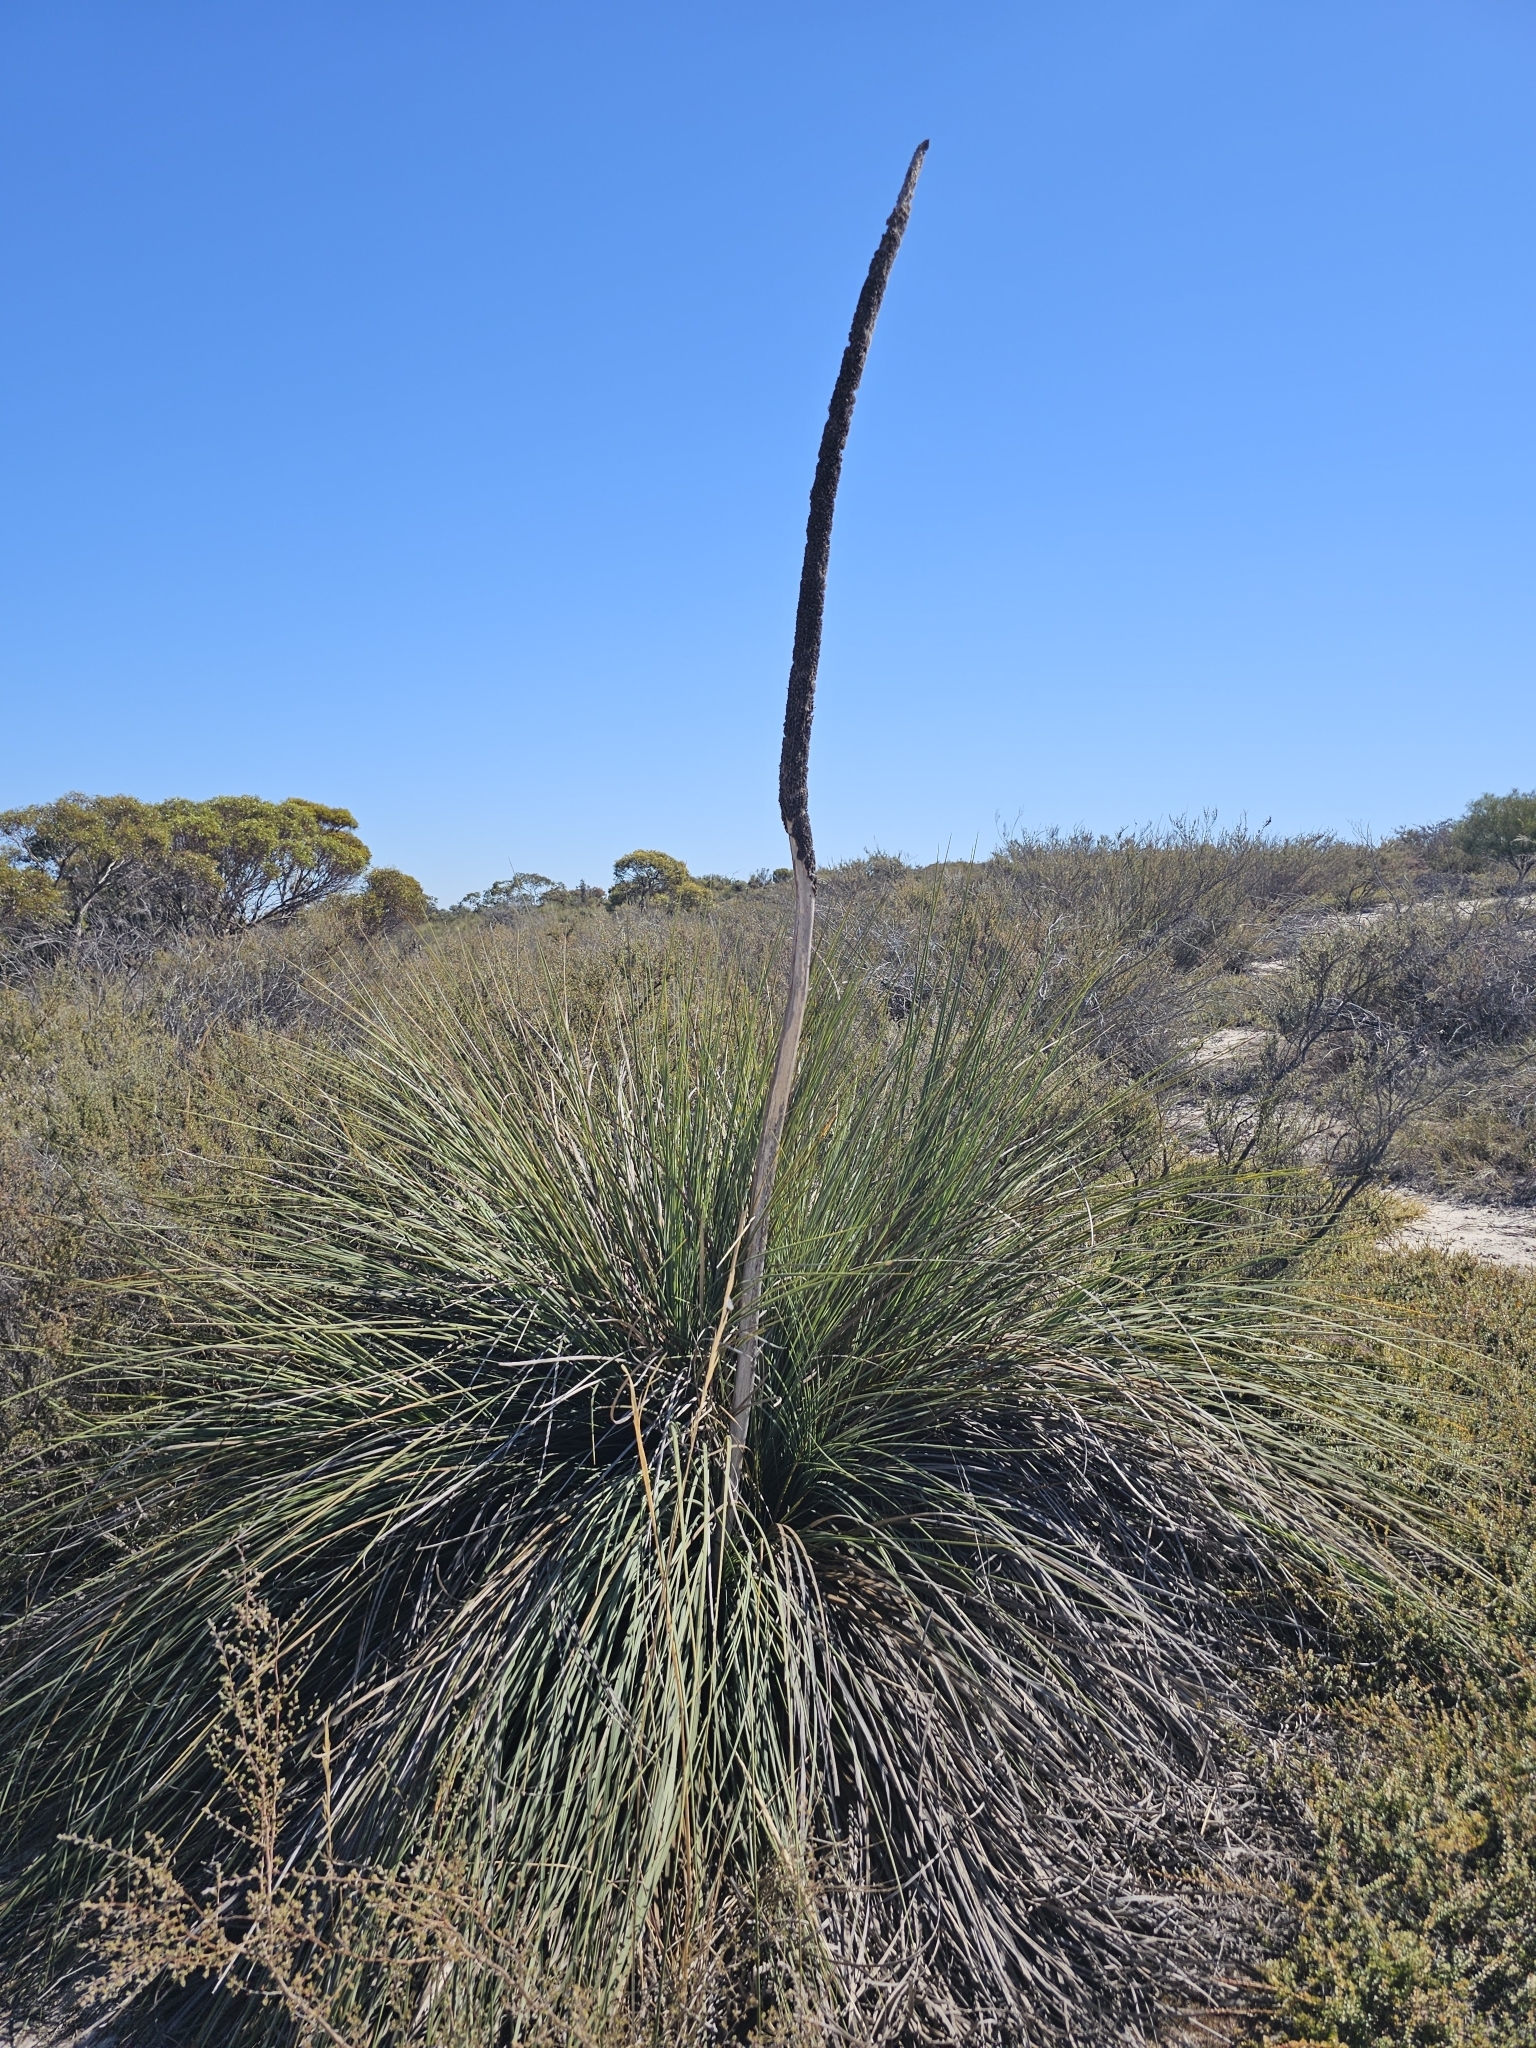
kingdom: Plantae
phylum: Tracheophyta
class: Liliopsida
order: Asparagales
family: Asphodelaceae
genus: Xanthorrhoea
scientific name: Xanthorrhoea caespitosa
